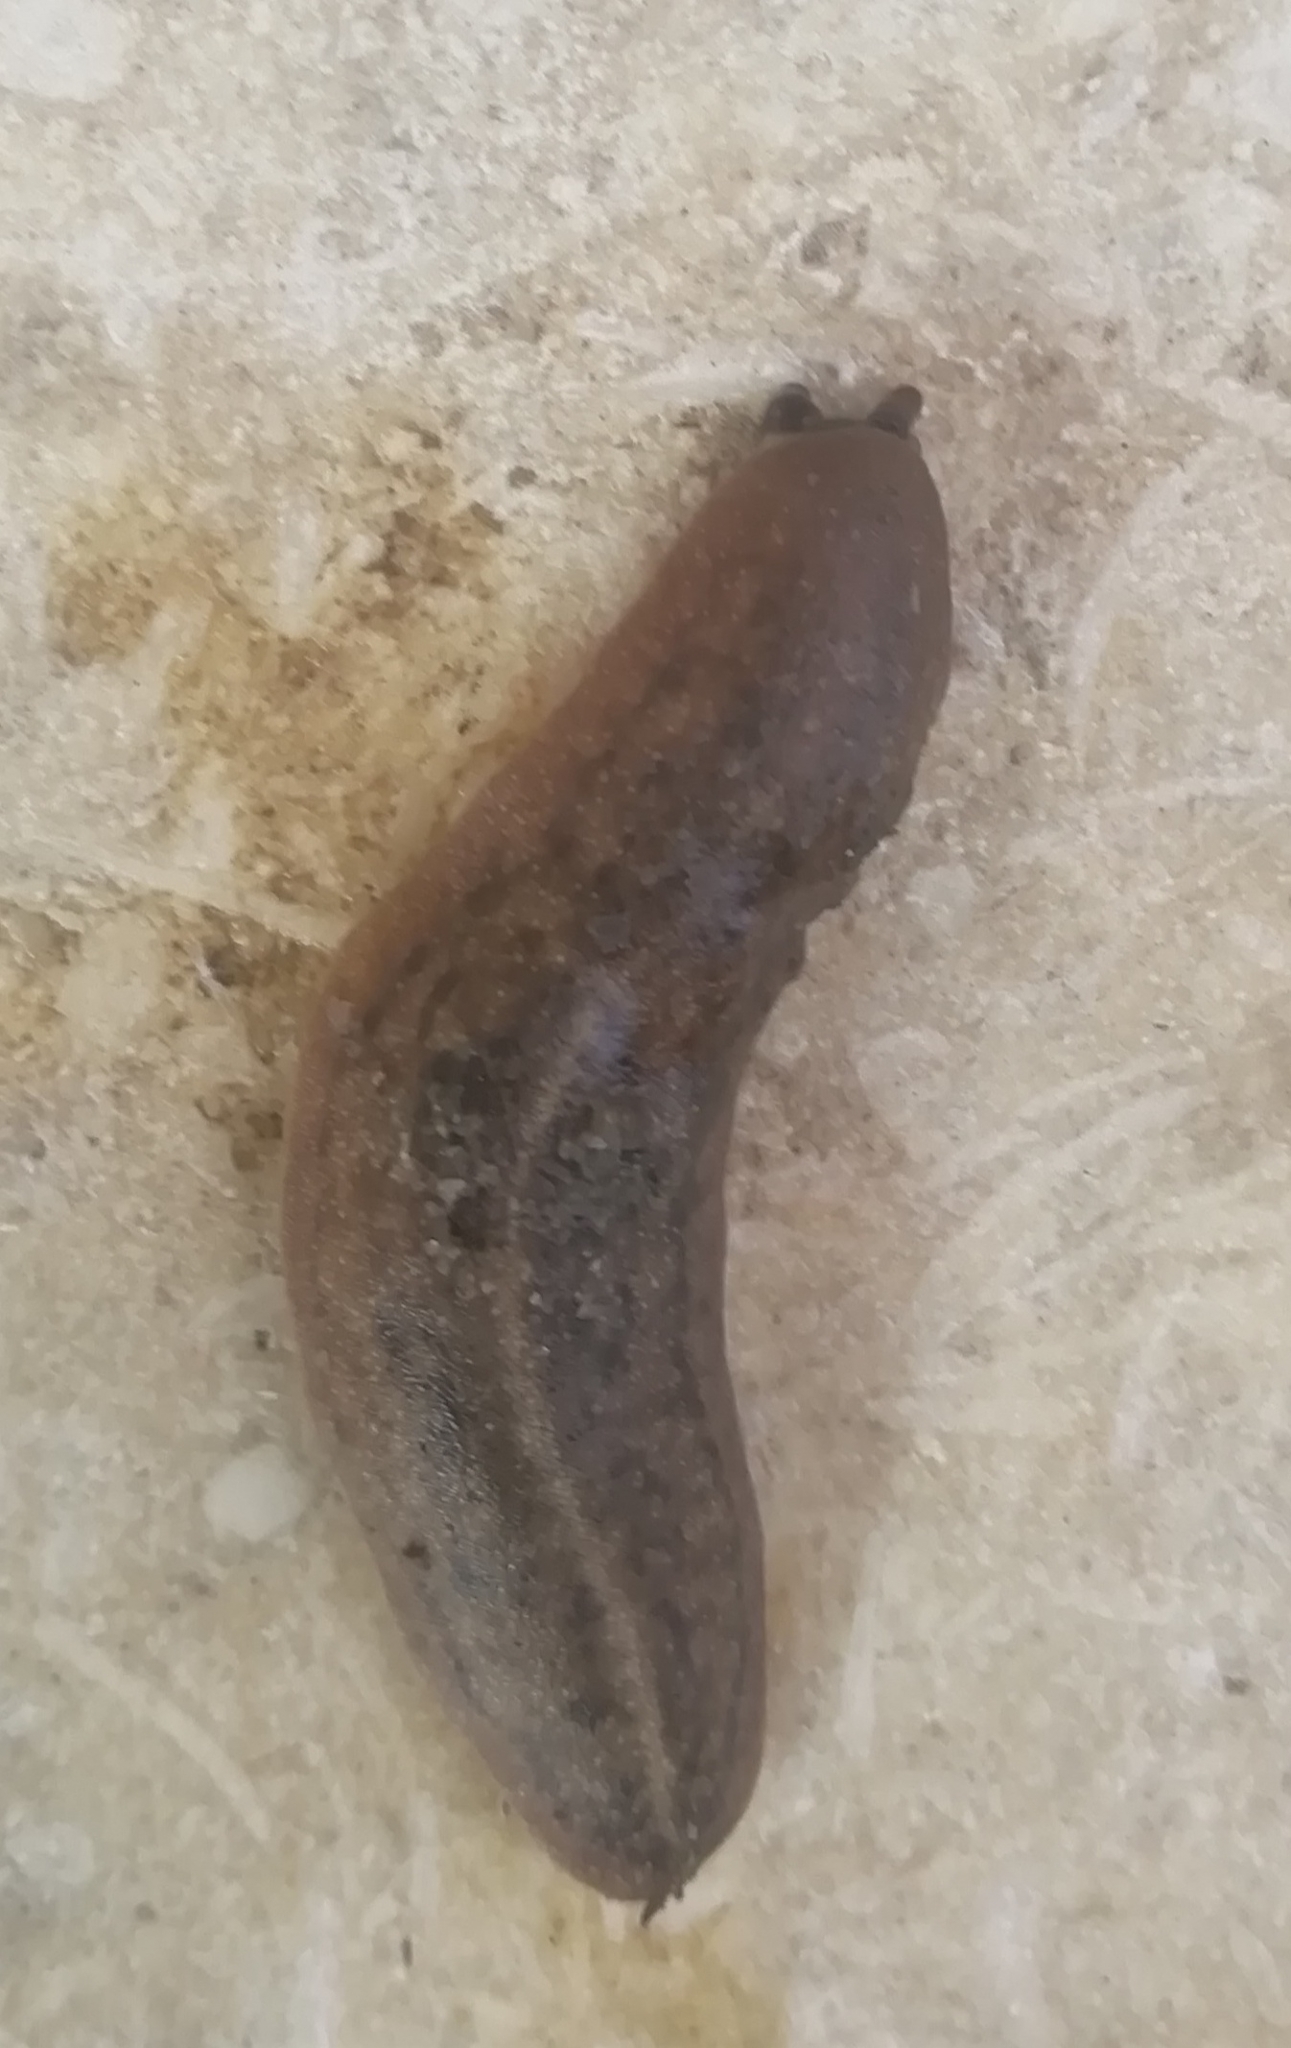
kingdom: Animalia
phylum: Mollusca
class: Gastropoda
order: Systellommatophora
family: Veronicellidae
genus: Laevicaulis
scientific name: Laevicaulis stuhlmanni
